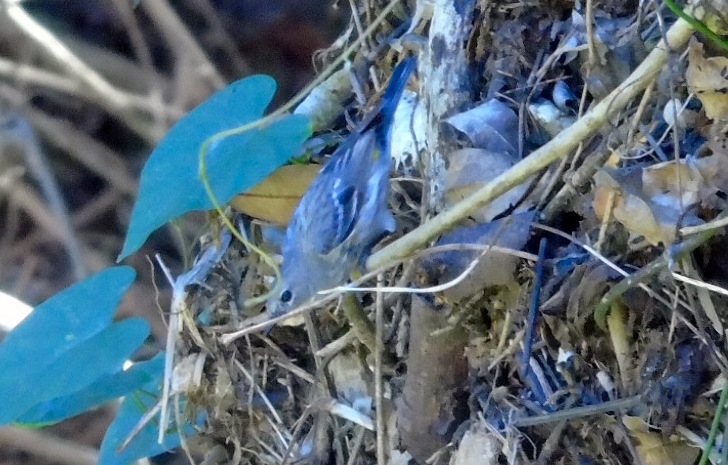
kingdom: Animalia
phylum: Chordata
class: Aves
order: Passeriformes
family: Parulidae
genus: Setophaga
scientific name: Setophaga coronata
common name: Myrtle warbler
